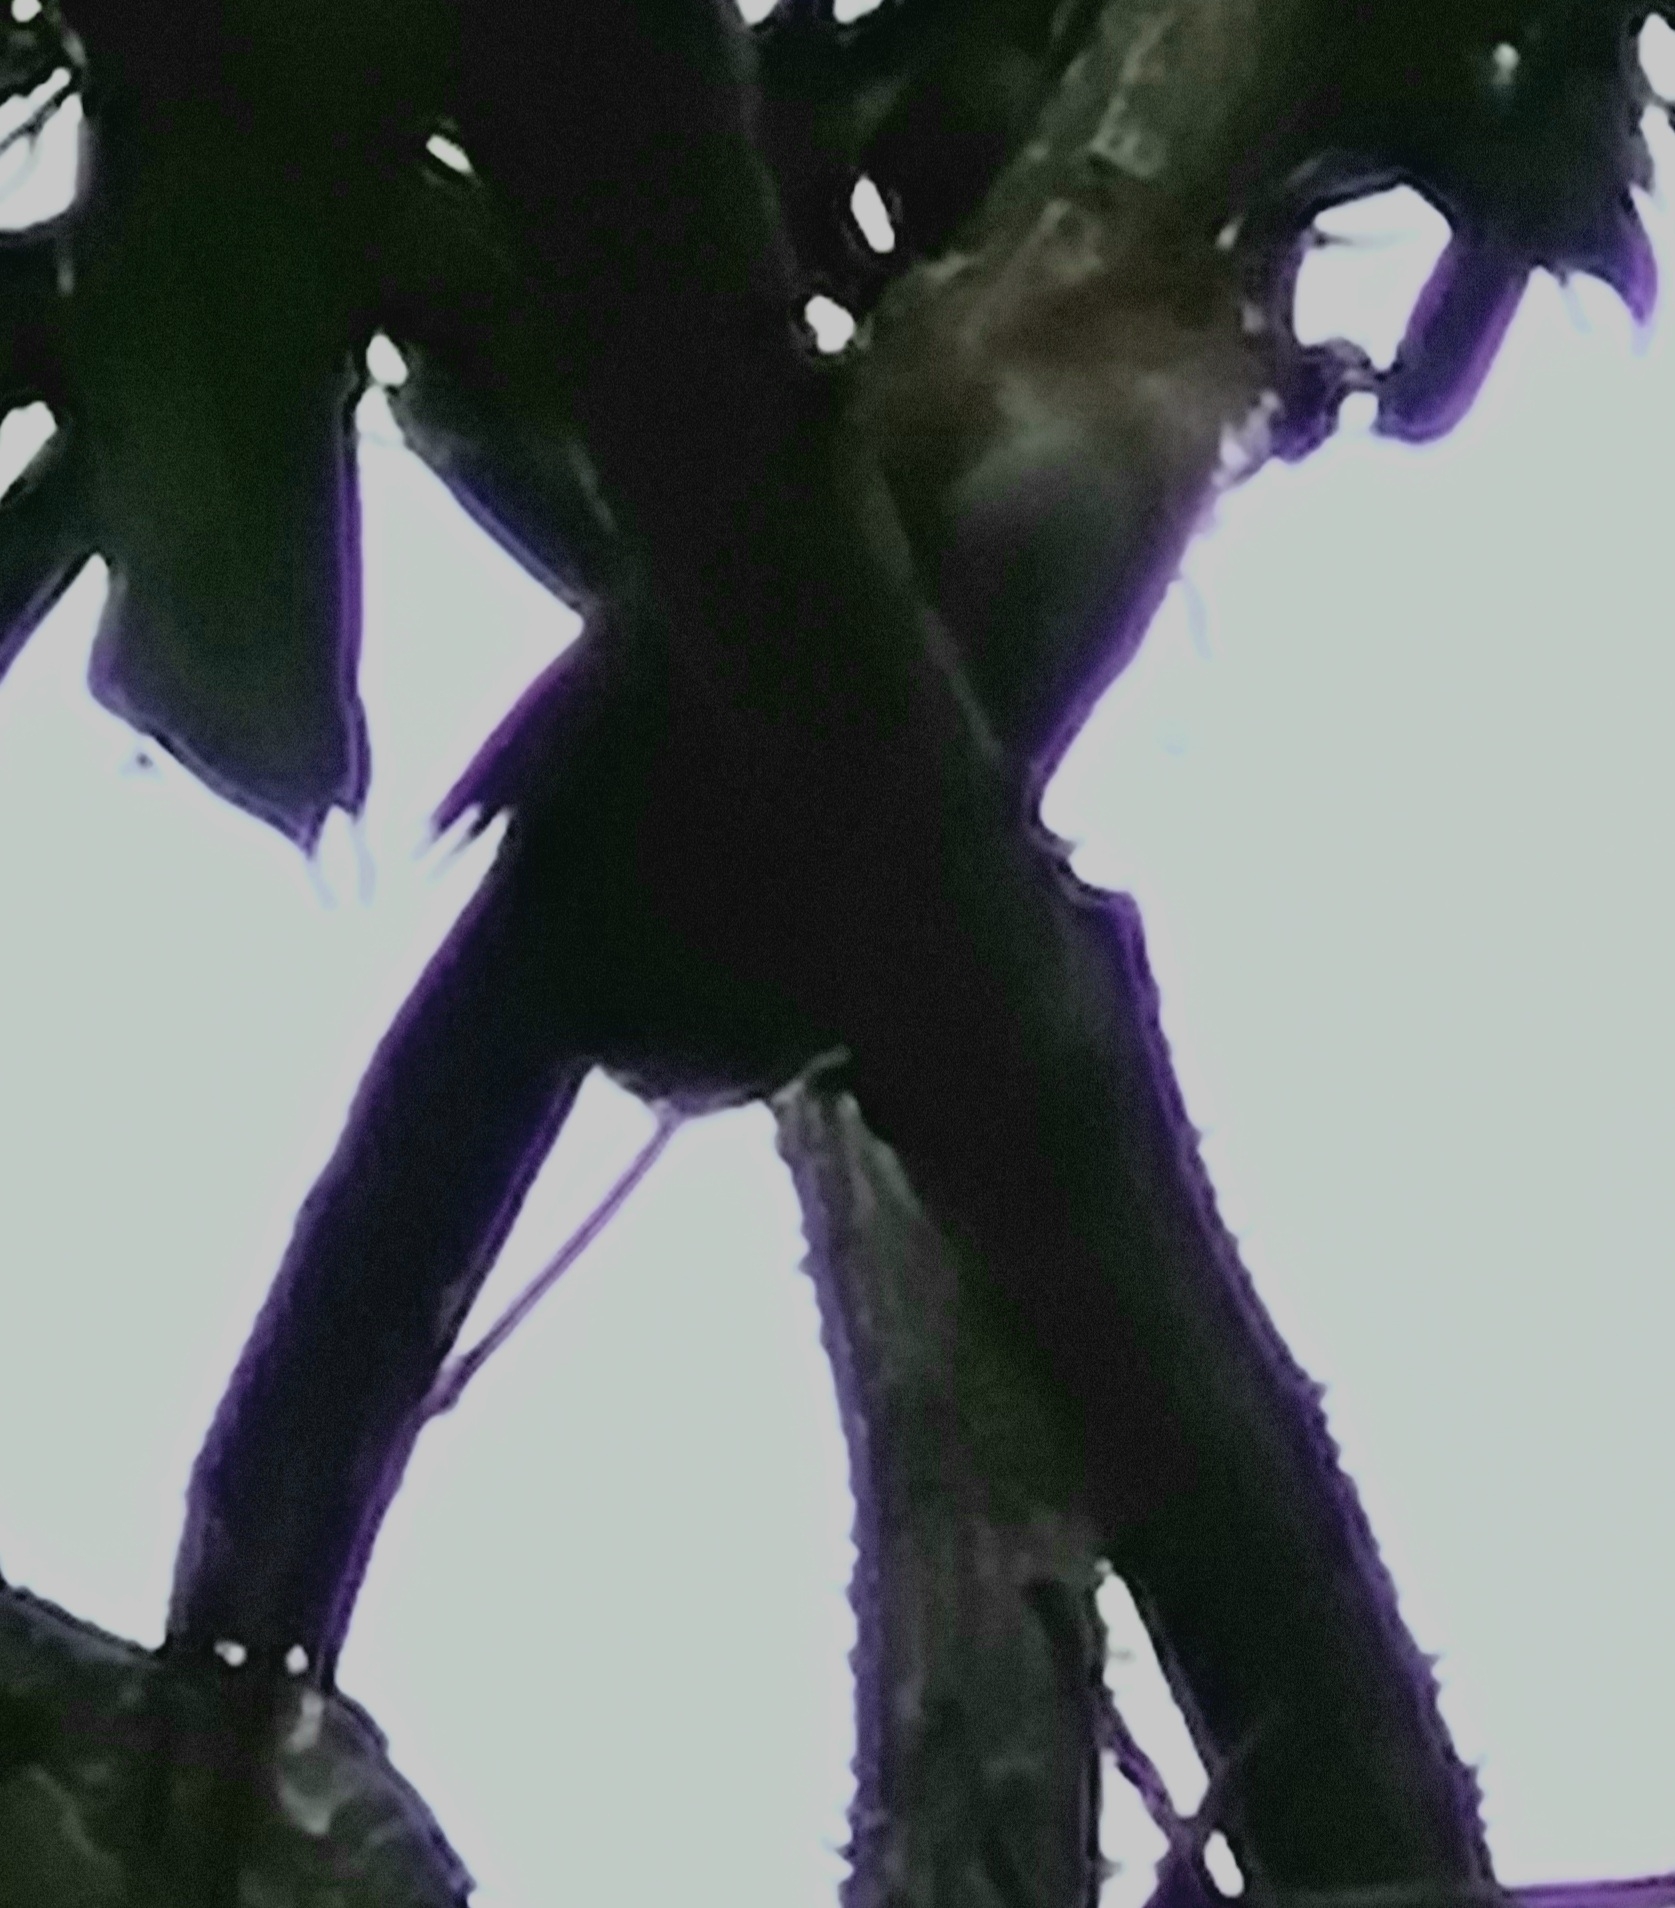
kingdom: Animalia
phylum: Chordata
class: Aves
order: Cuculiformes
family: Cuculidae
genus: Piaya
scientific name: Piaya cayana
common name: Squirrel cuckoo
